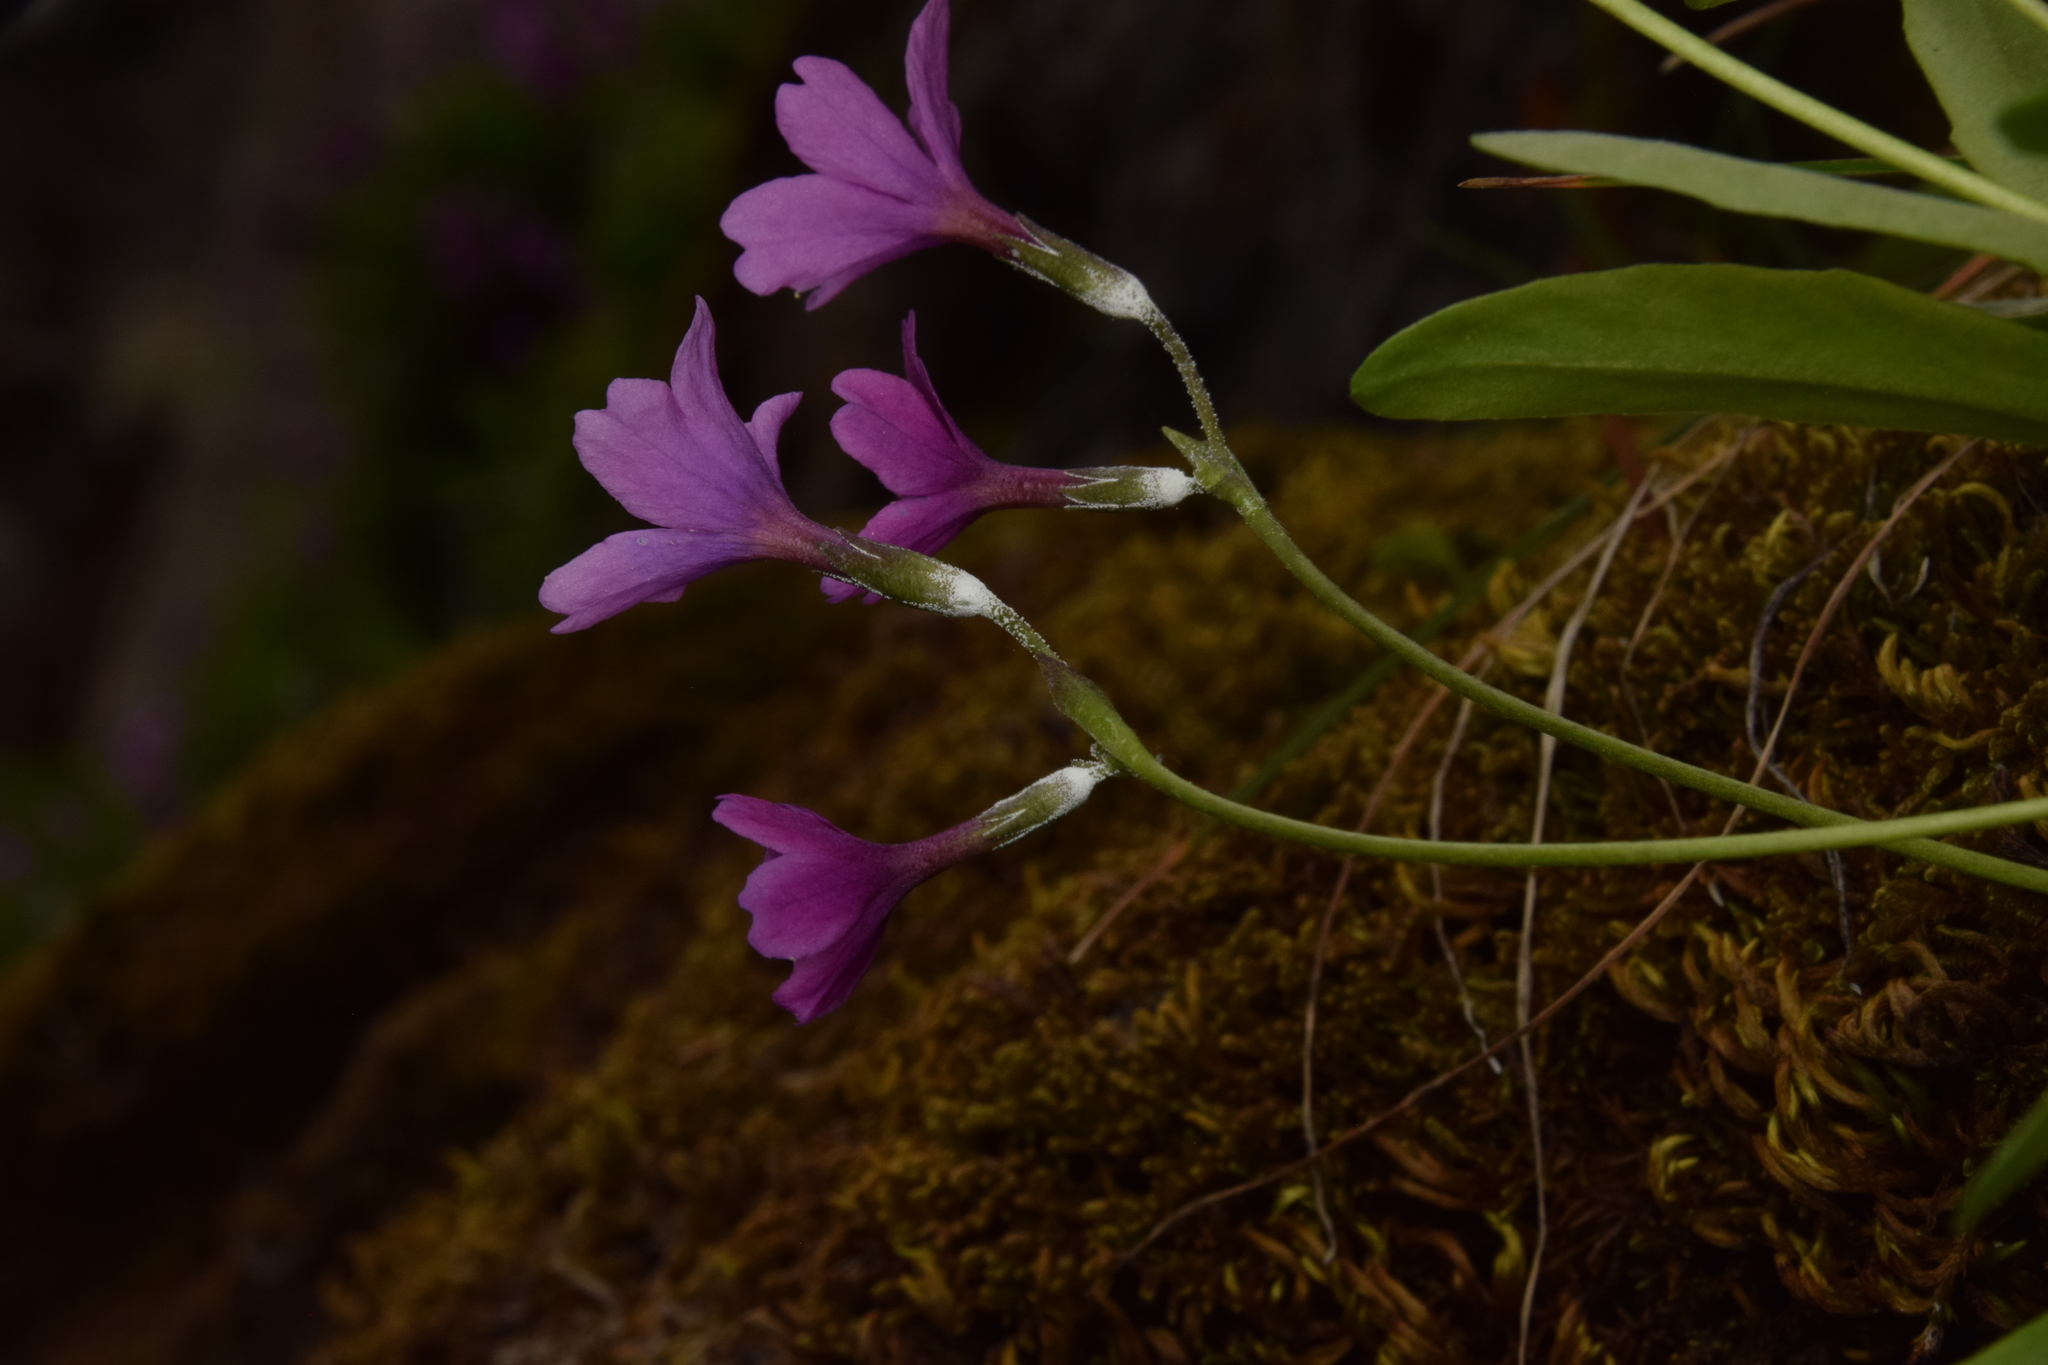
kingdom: Plantae
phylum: Tracheophyta
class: Magnoliopsida
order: Ericales
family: Primulaceae
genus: Primula
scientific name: Primula maguirei
